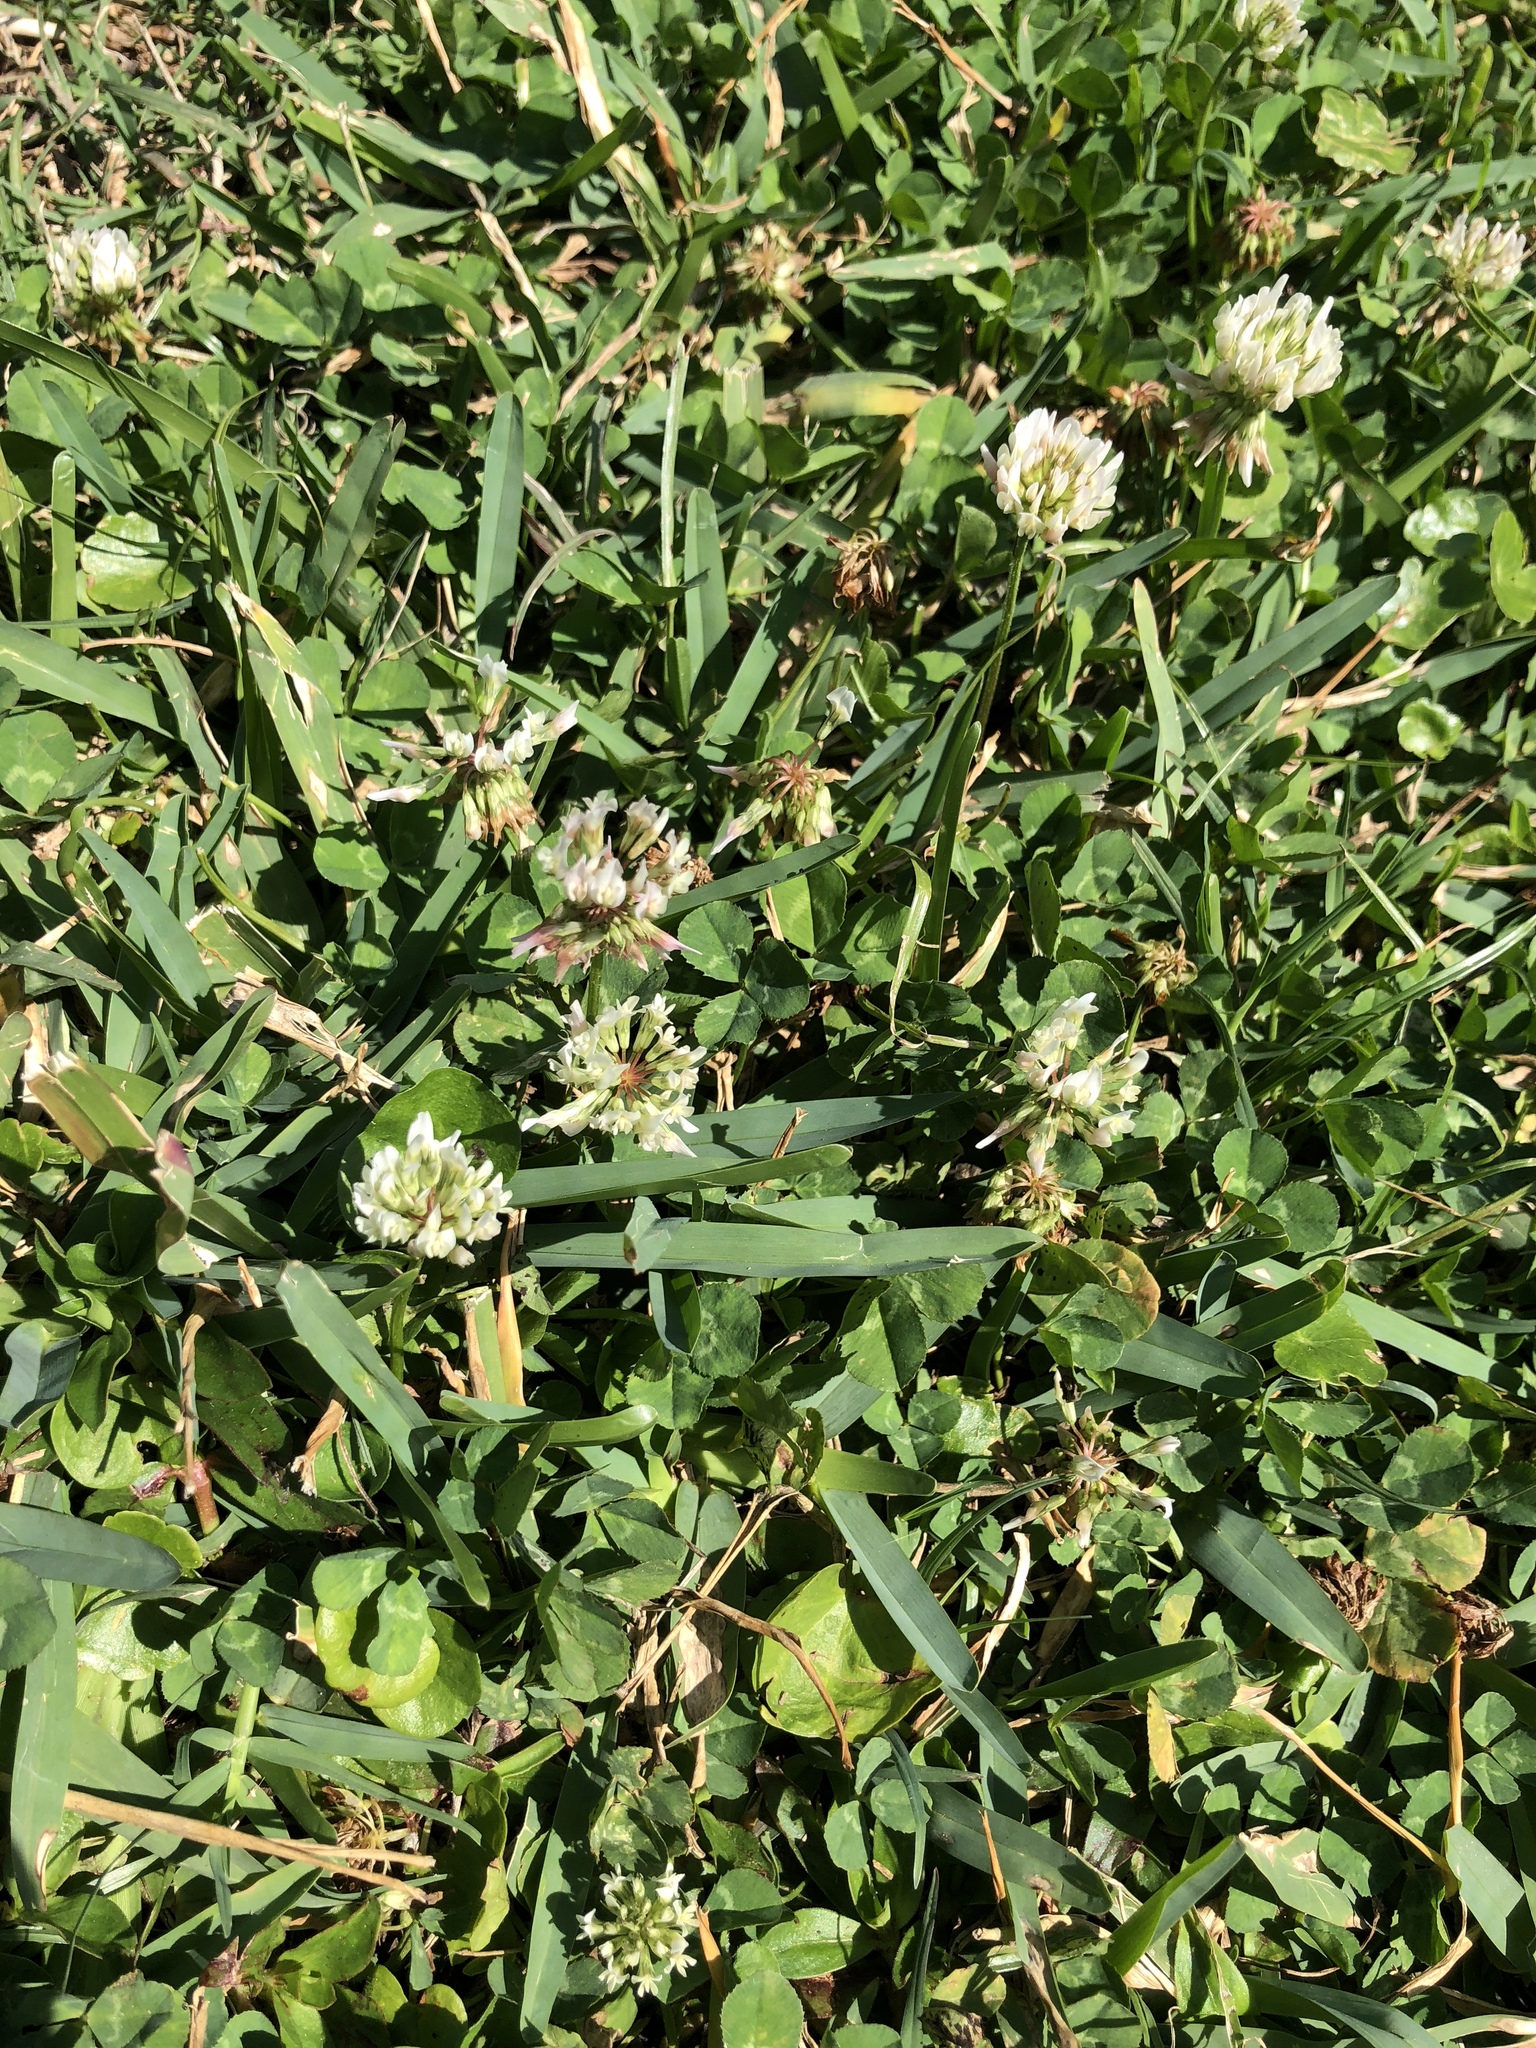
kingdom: Plantae
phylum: Tracheophyta
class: Magnoliopsida
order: Fabales
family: Fabaceae
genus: Trifolium
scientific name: Trifolium repens
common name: White clover
